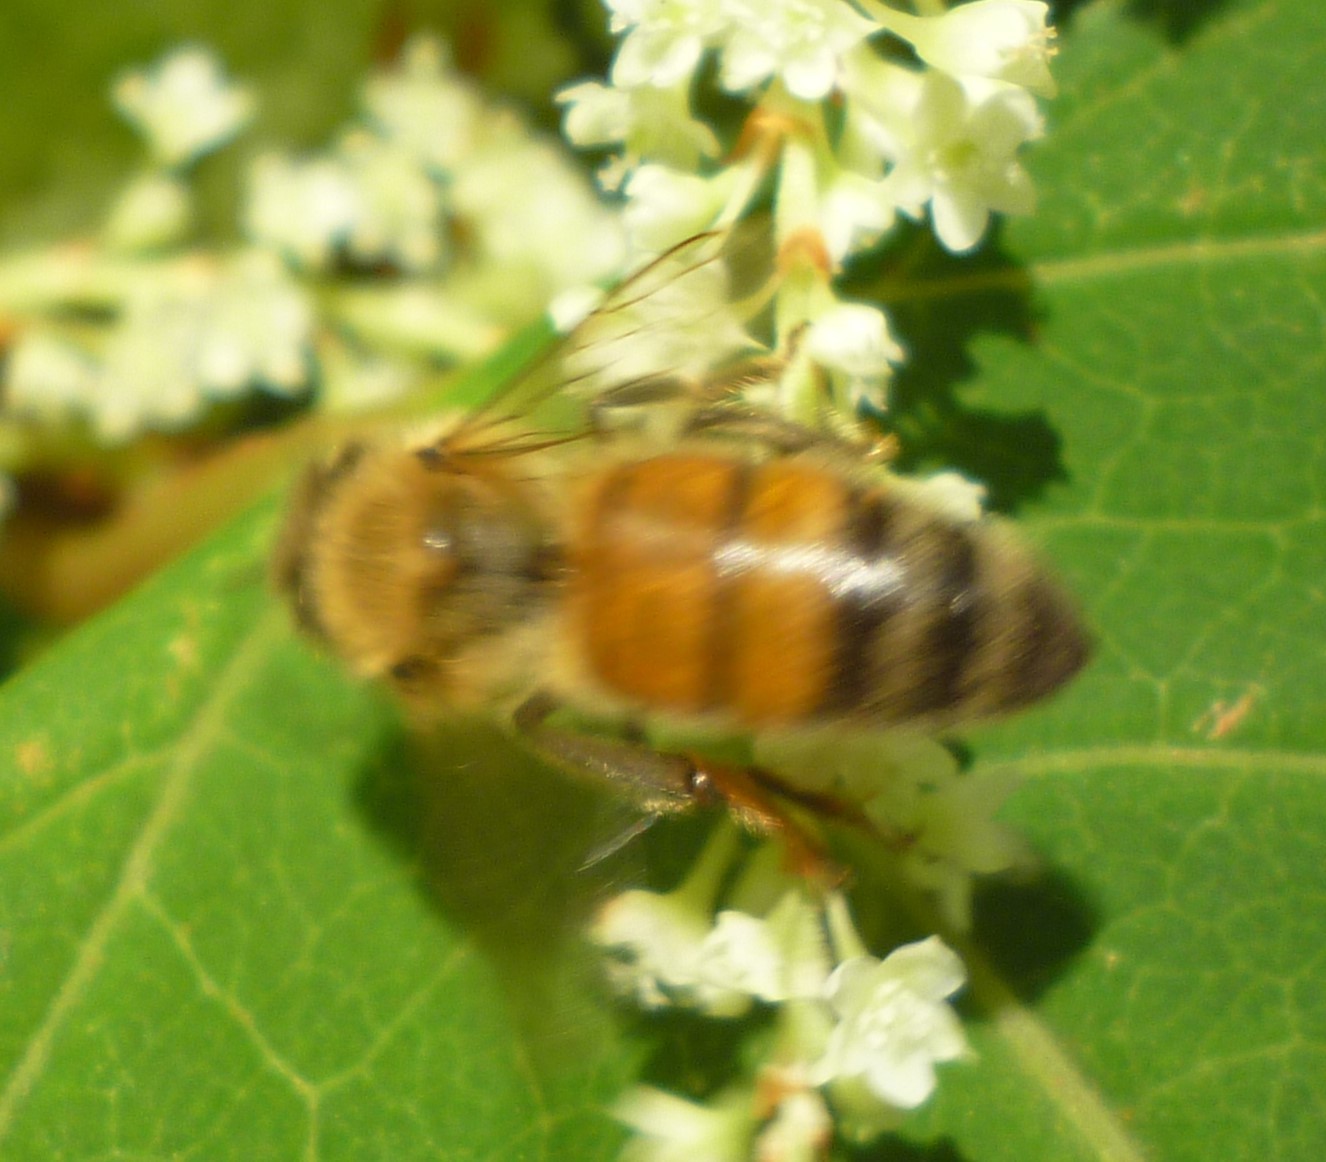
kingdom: Animalia
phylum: Arthropoda
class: Insecta
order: Hymenoptera
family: Apidae
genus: Apis
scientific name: Apis mellifera
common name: Honey bee
